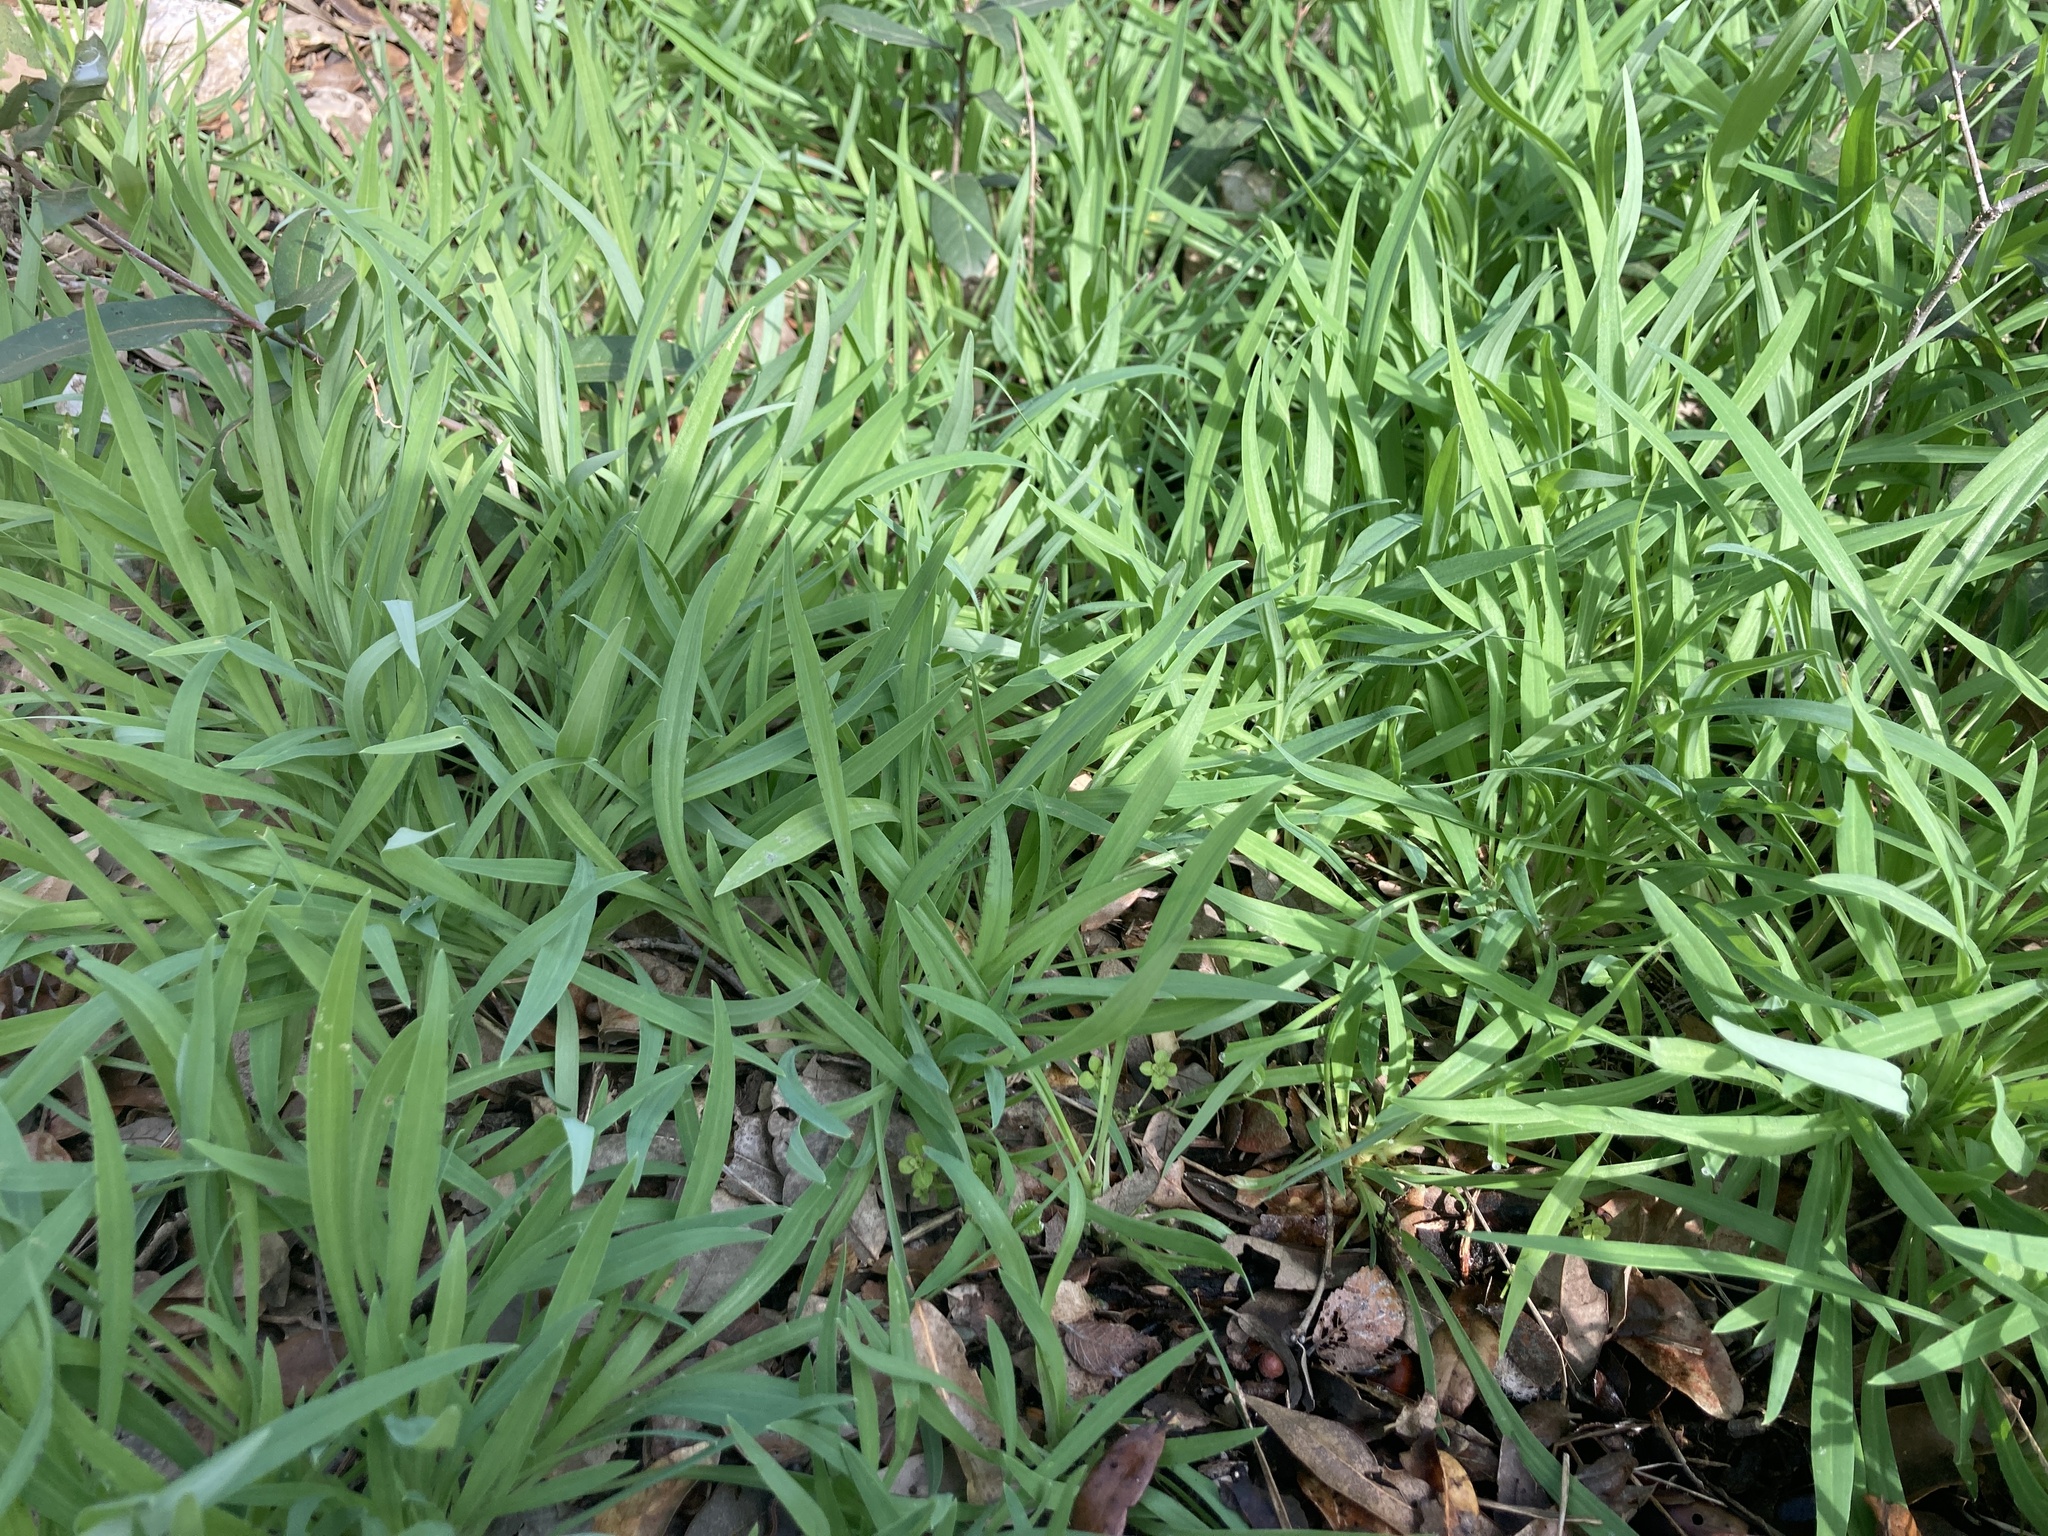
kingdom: Plantae
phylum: Tracheophyta
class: Liliopsida
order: Commelinales
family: Commelinaceae
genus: Tinantia
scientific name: Tinantia anomala
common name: False dayflower
